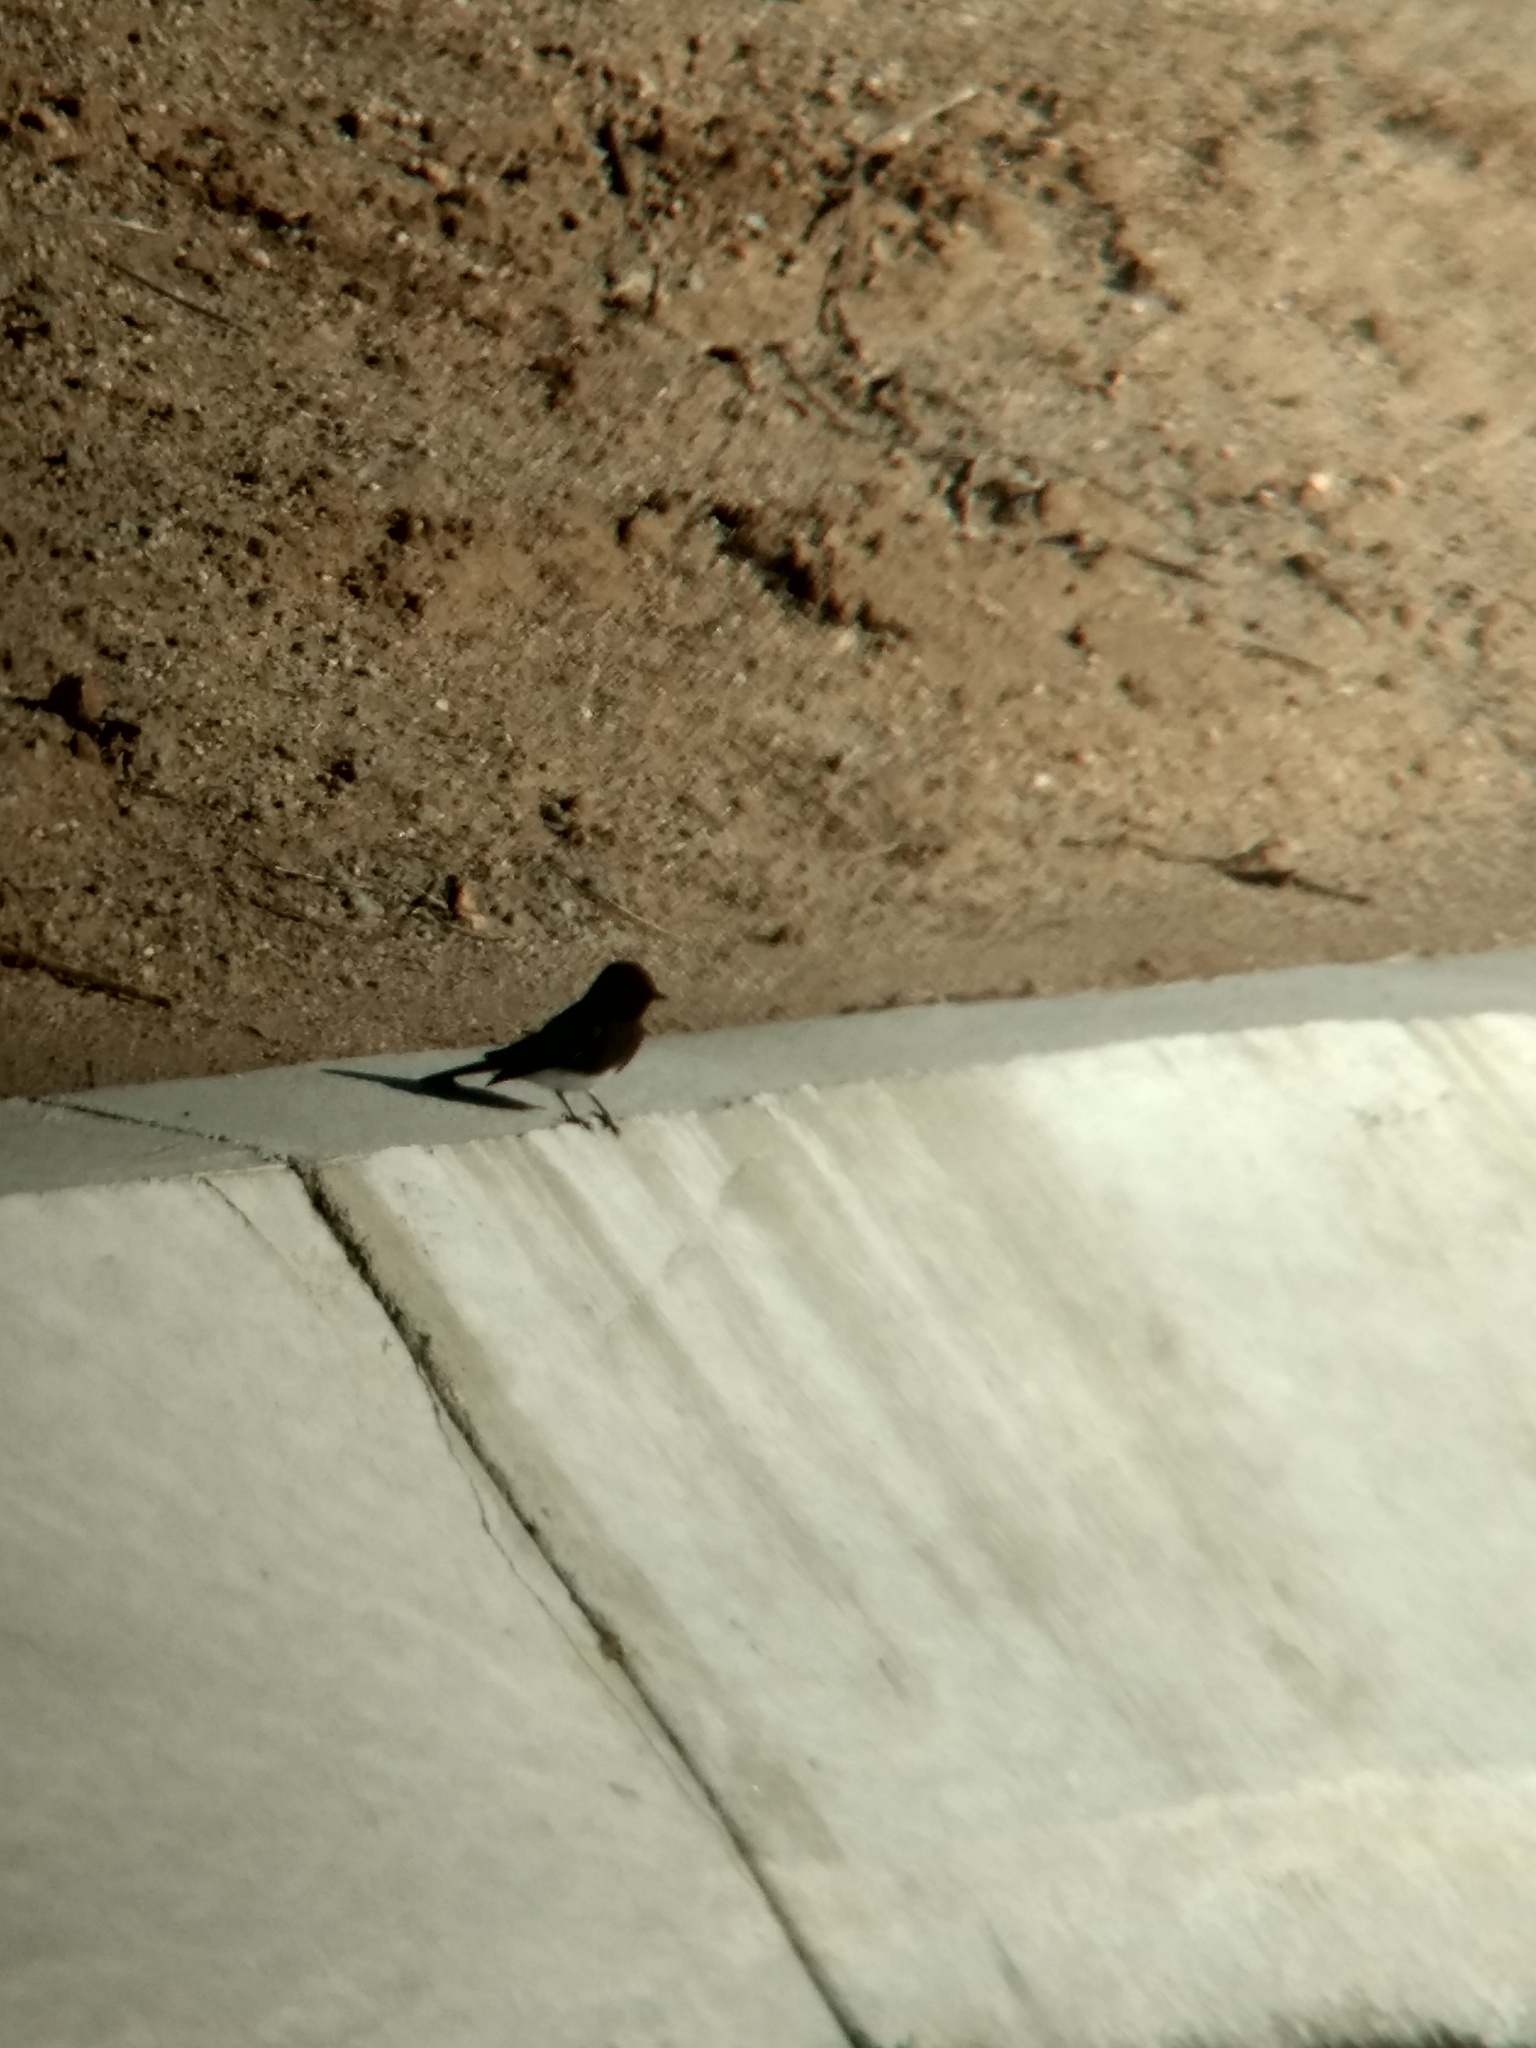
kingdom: Animalia
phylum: Chordata
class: Aves
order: Passeriformes
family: Tyrannidae
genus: Sayornis
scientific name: Sayornis nigricans
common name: Black phoebe
